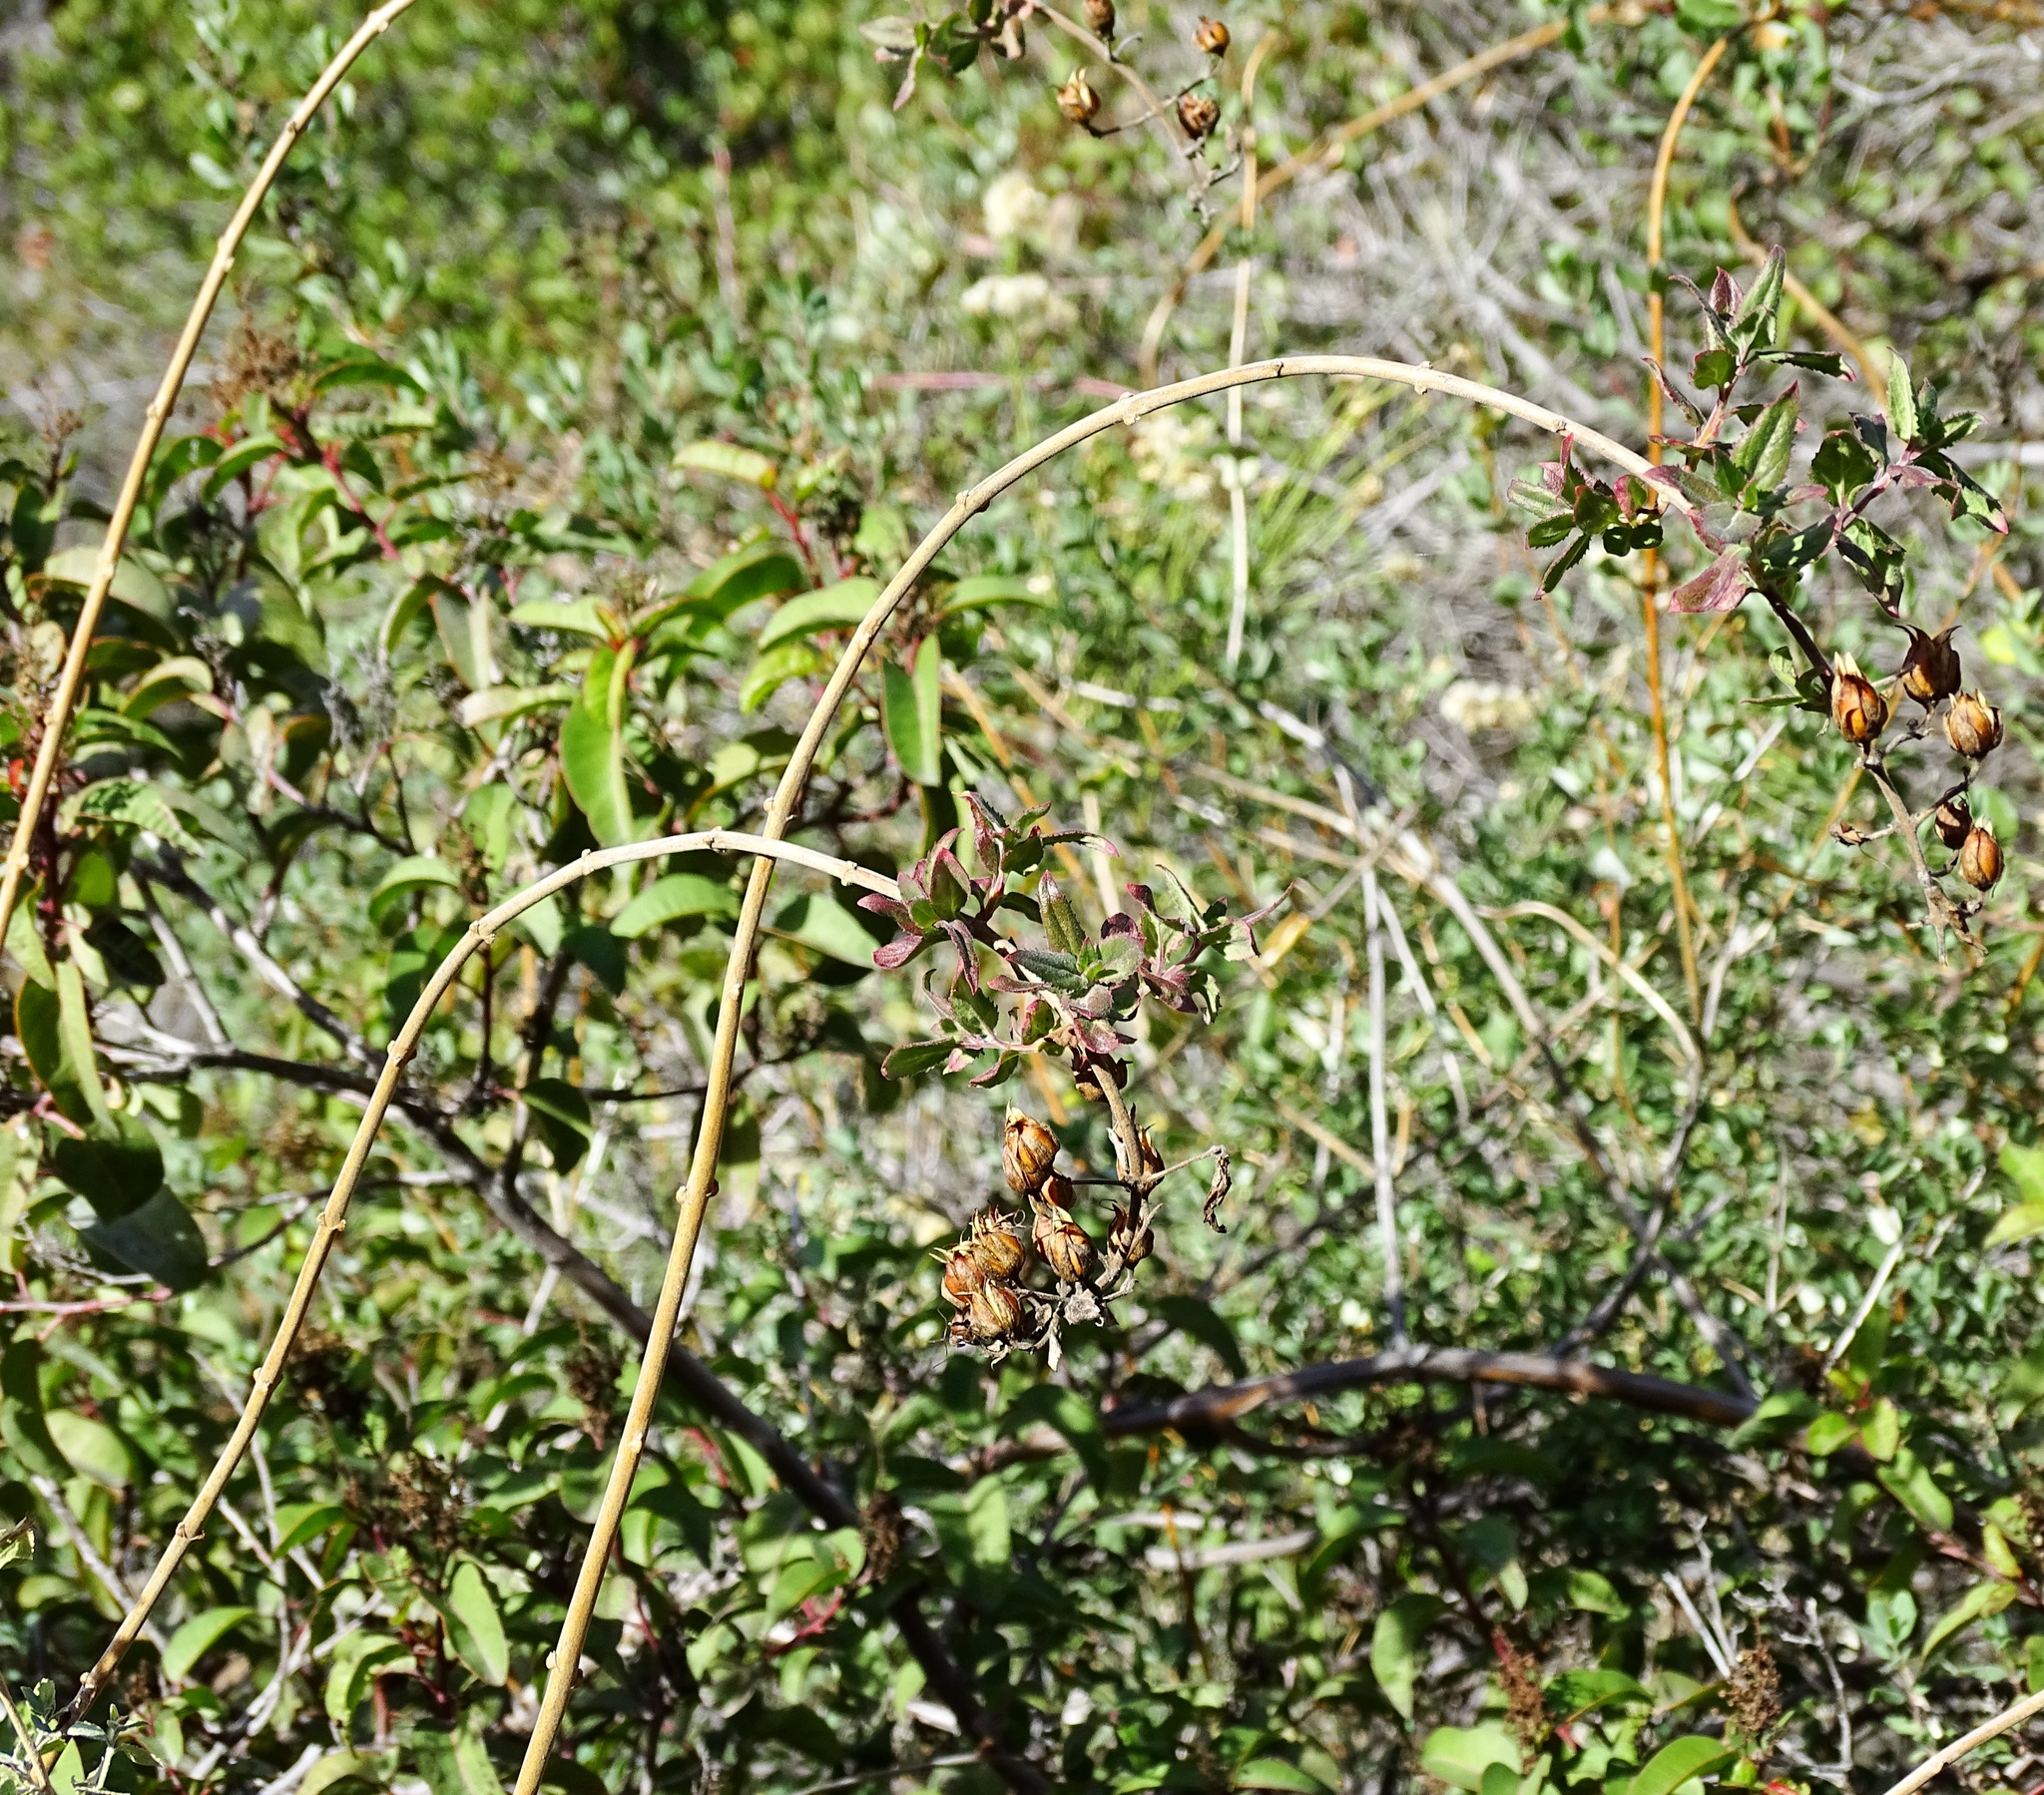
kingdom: Plantae
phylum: Tracheophyta
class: Magnoliopsida
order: Lamiales
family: Plantaginaceae
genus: Keckiella
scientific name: Keckiella cordifolia
